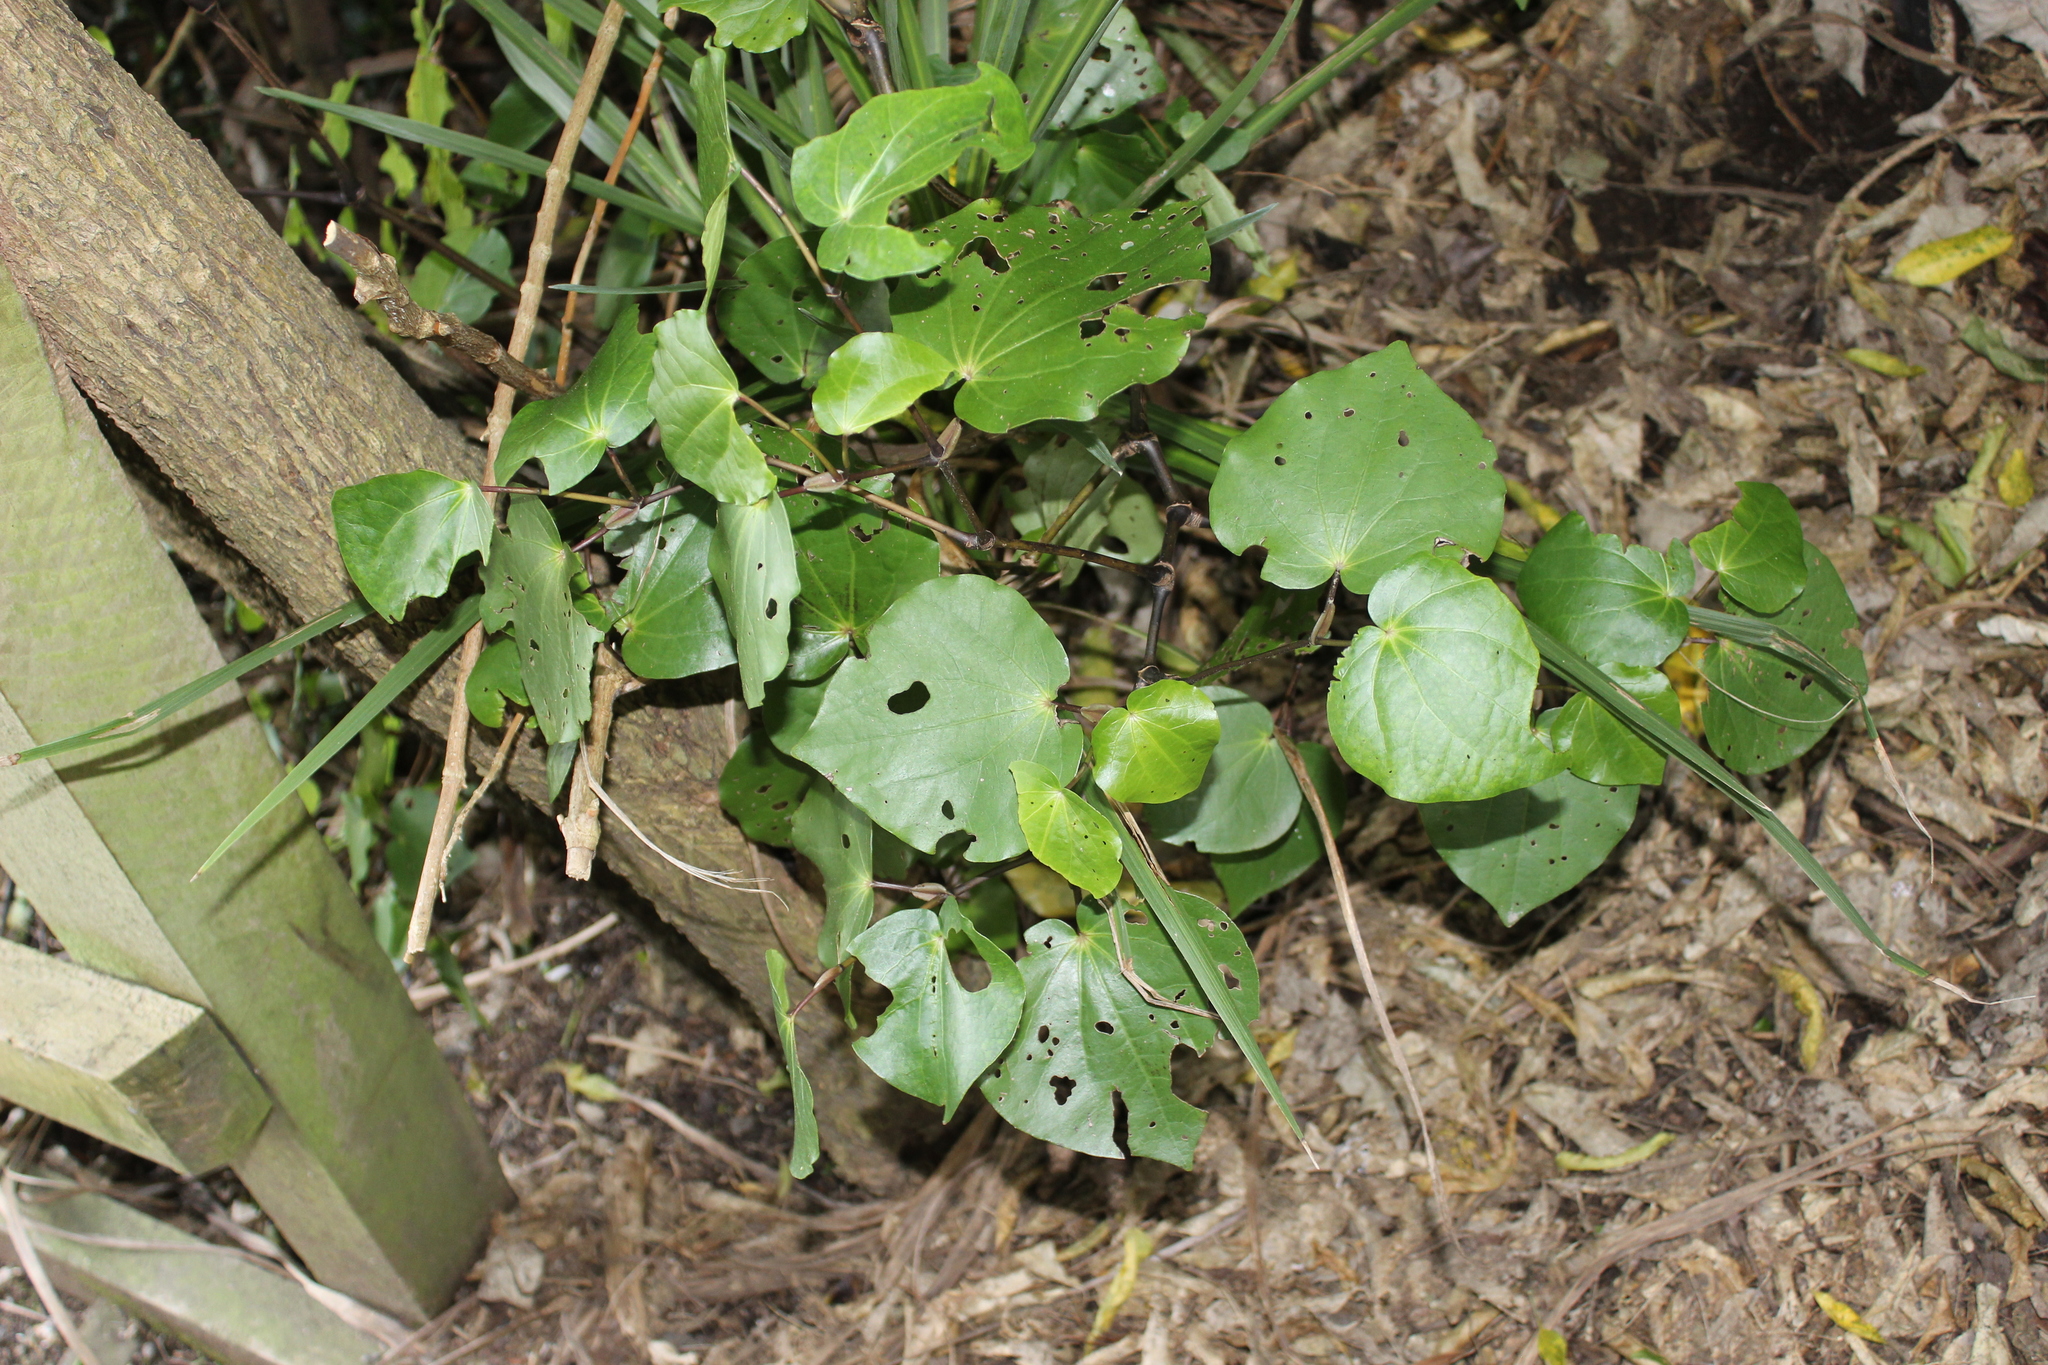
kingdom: Plantae
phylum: Tracheophyta
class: Magnoliopsida
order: Piperales
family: Piperaceae
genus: Macropiper
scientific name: Macropiper excelsum
